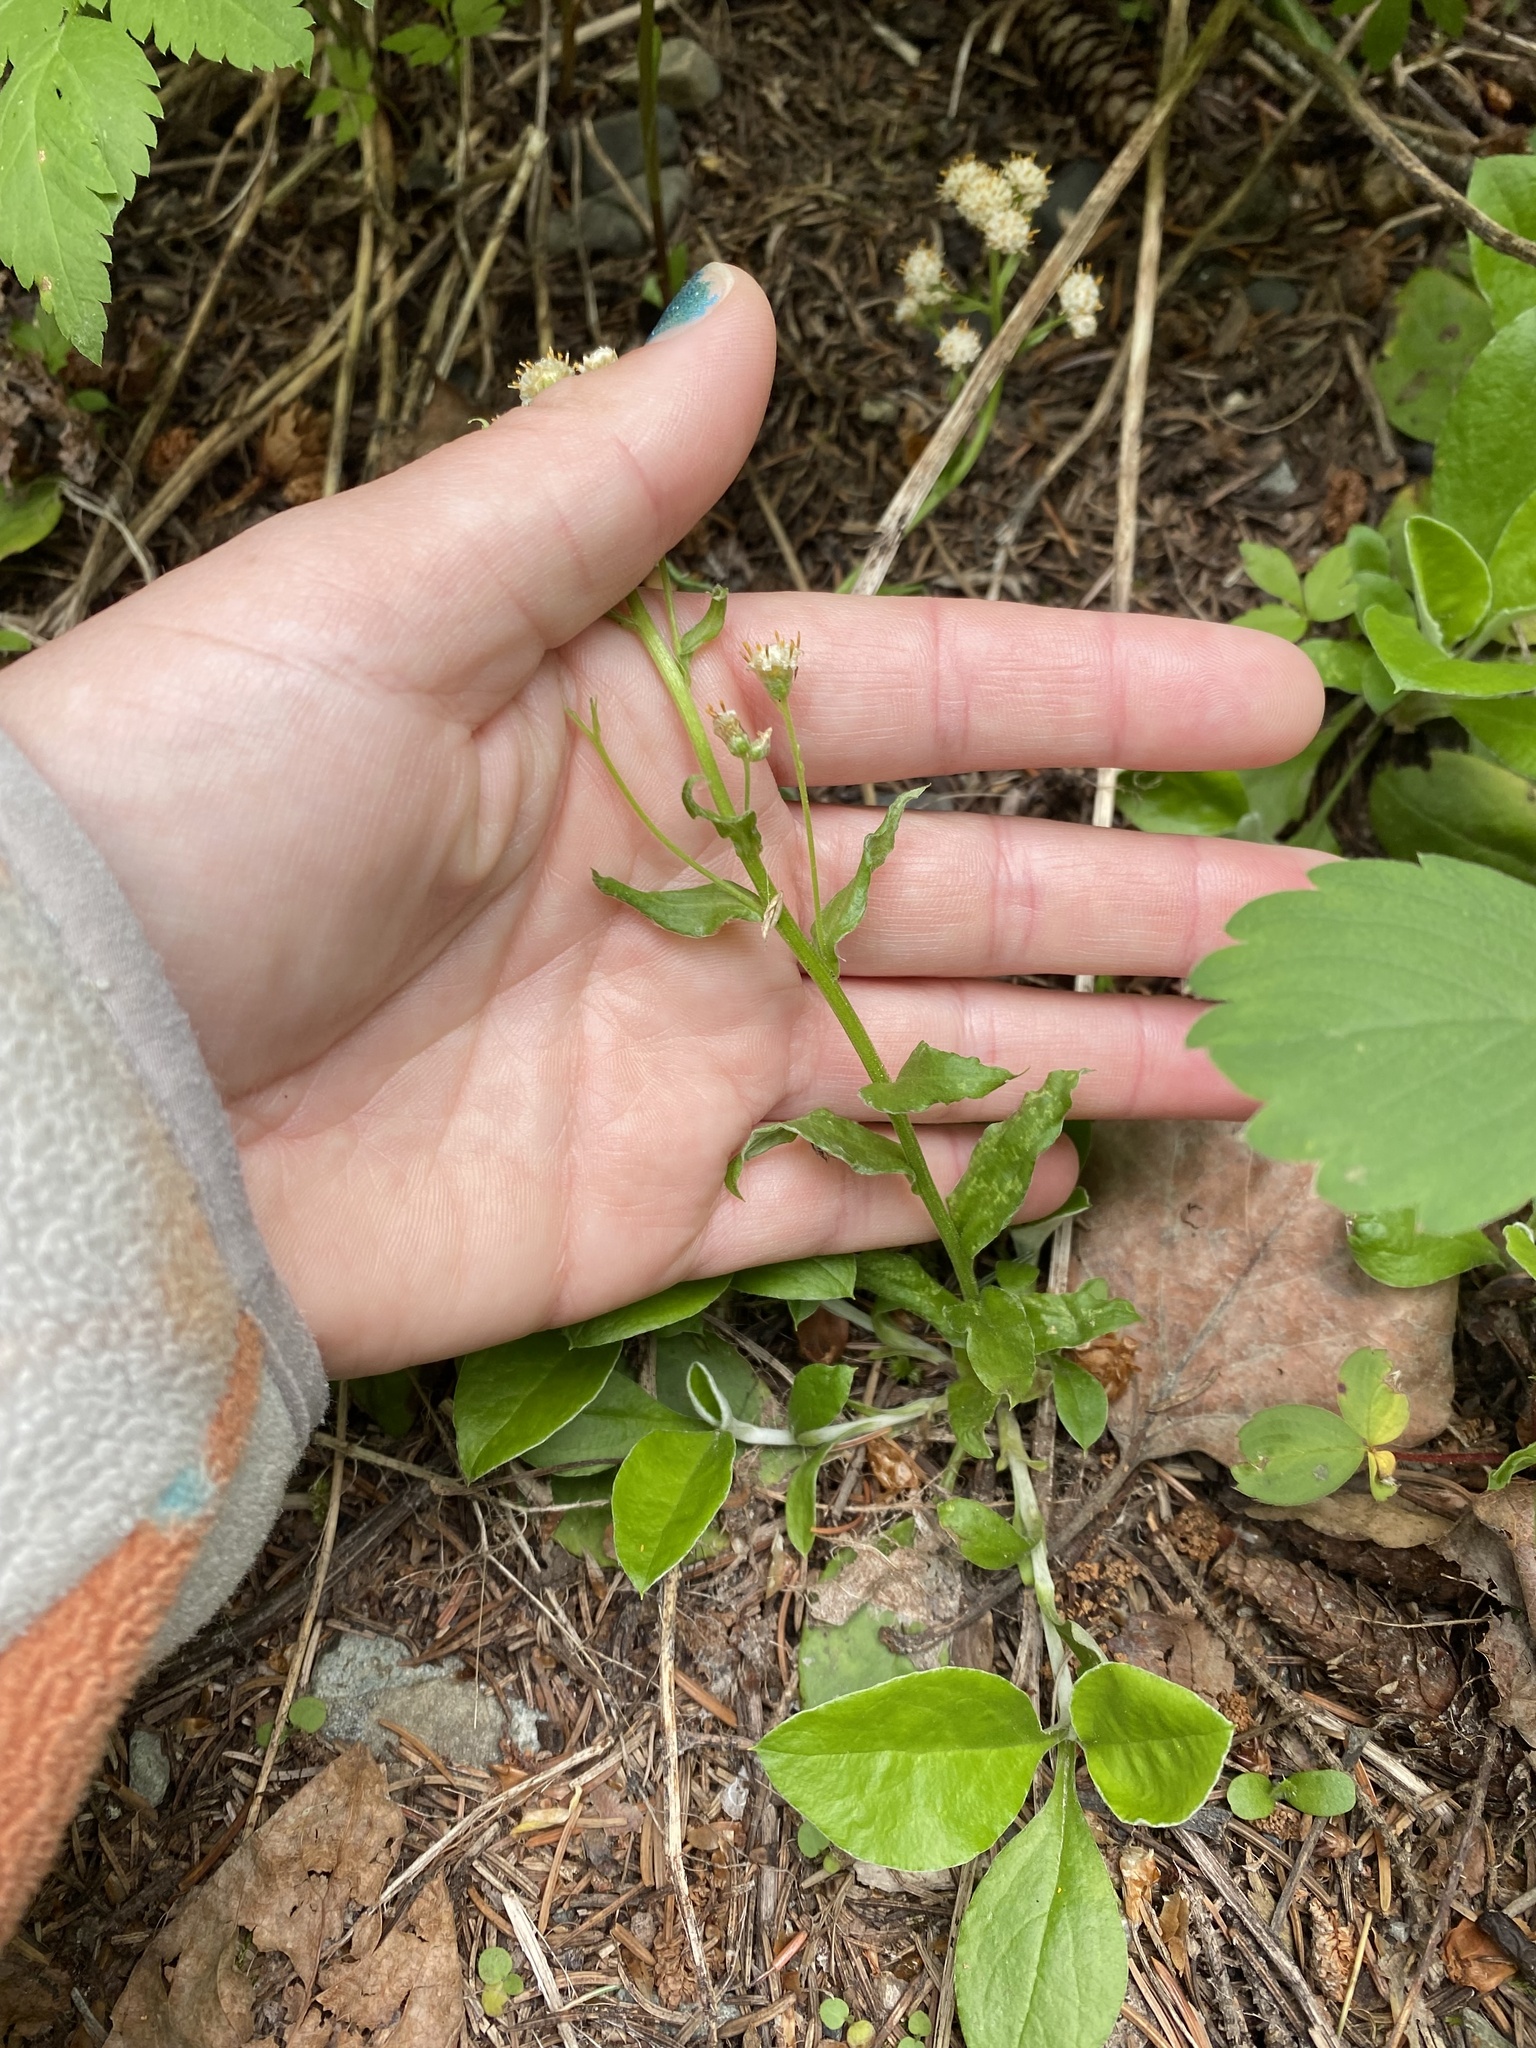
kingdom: Plantae
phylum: Tracheophyta
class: Magnoliopsida
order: Asterales
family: Asteraceae
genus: Antennaria
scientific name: Antennaria racemosa
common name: Racemose pussytoes
